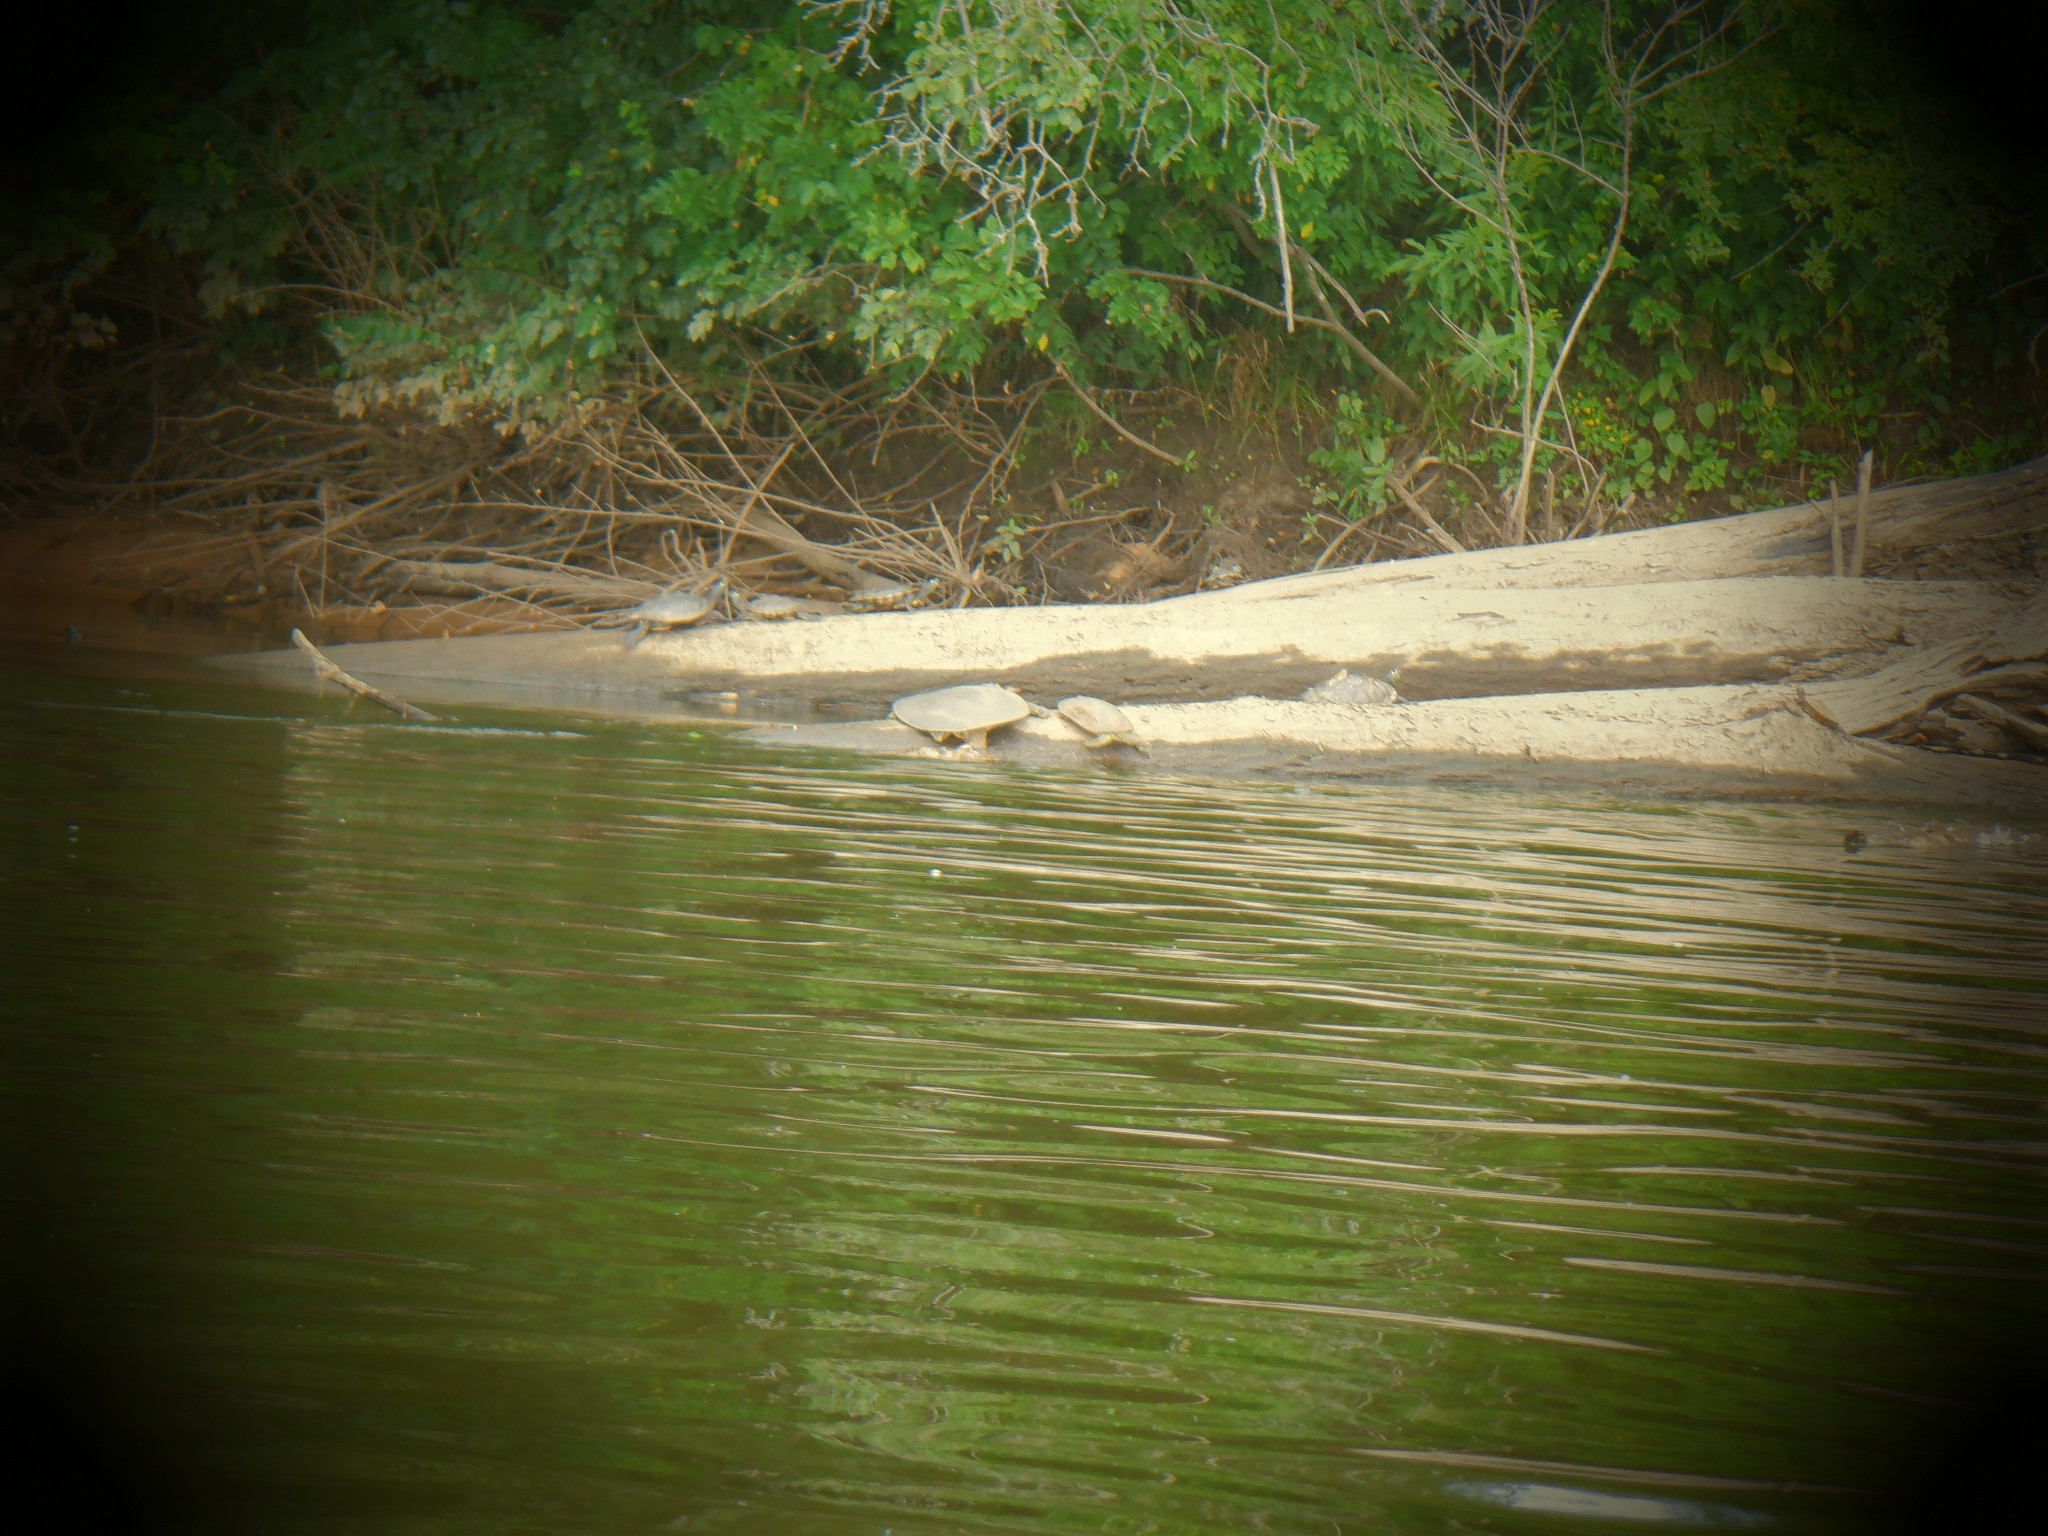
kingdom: Animalia
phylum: Chordata
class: Testudines
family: Trionychidae
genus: Apalone
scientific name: Apalone spinifera
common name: Spiny softshell turtle
